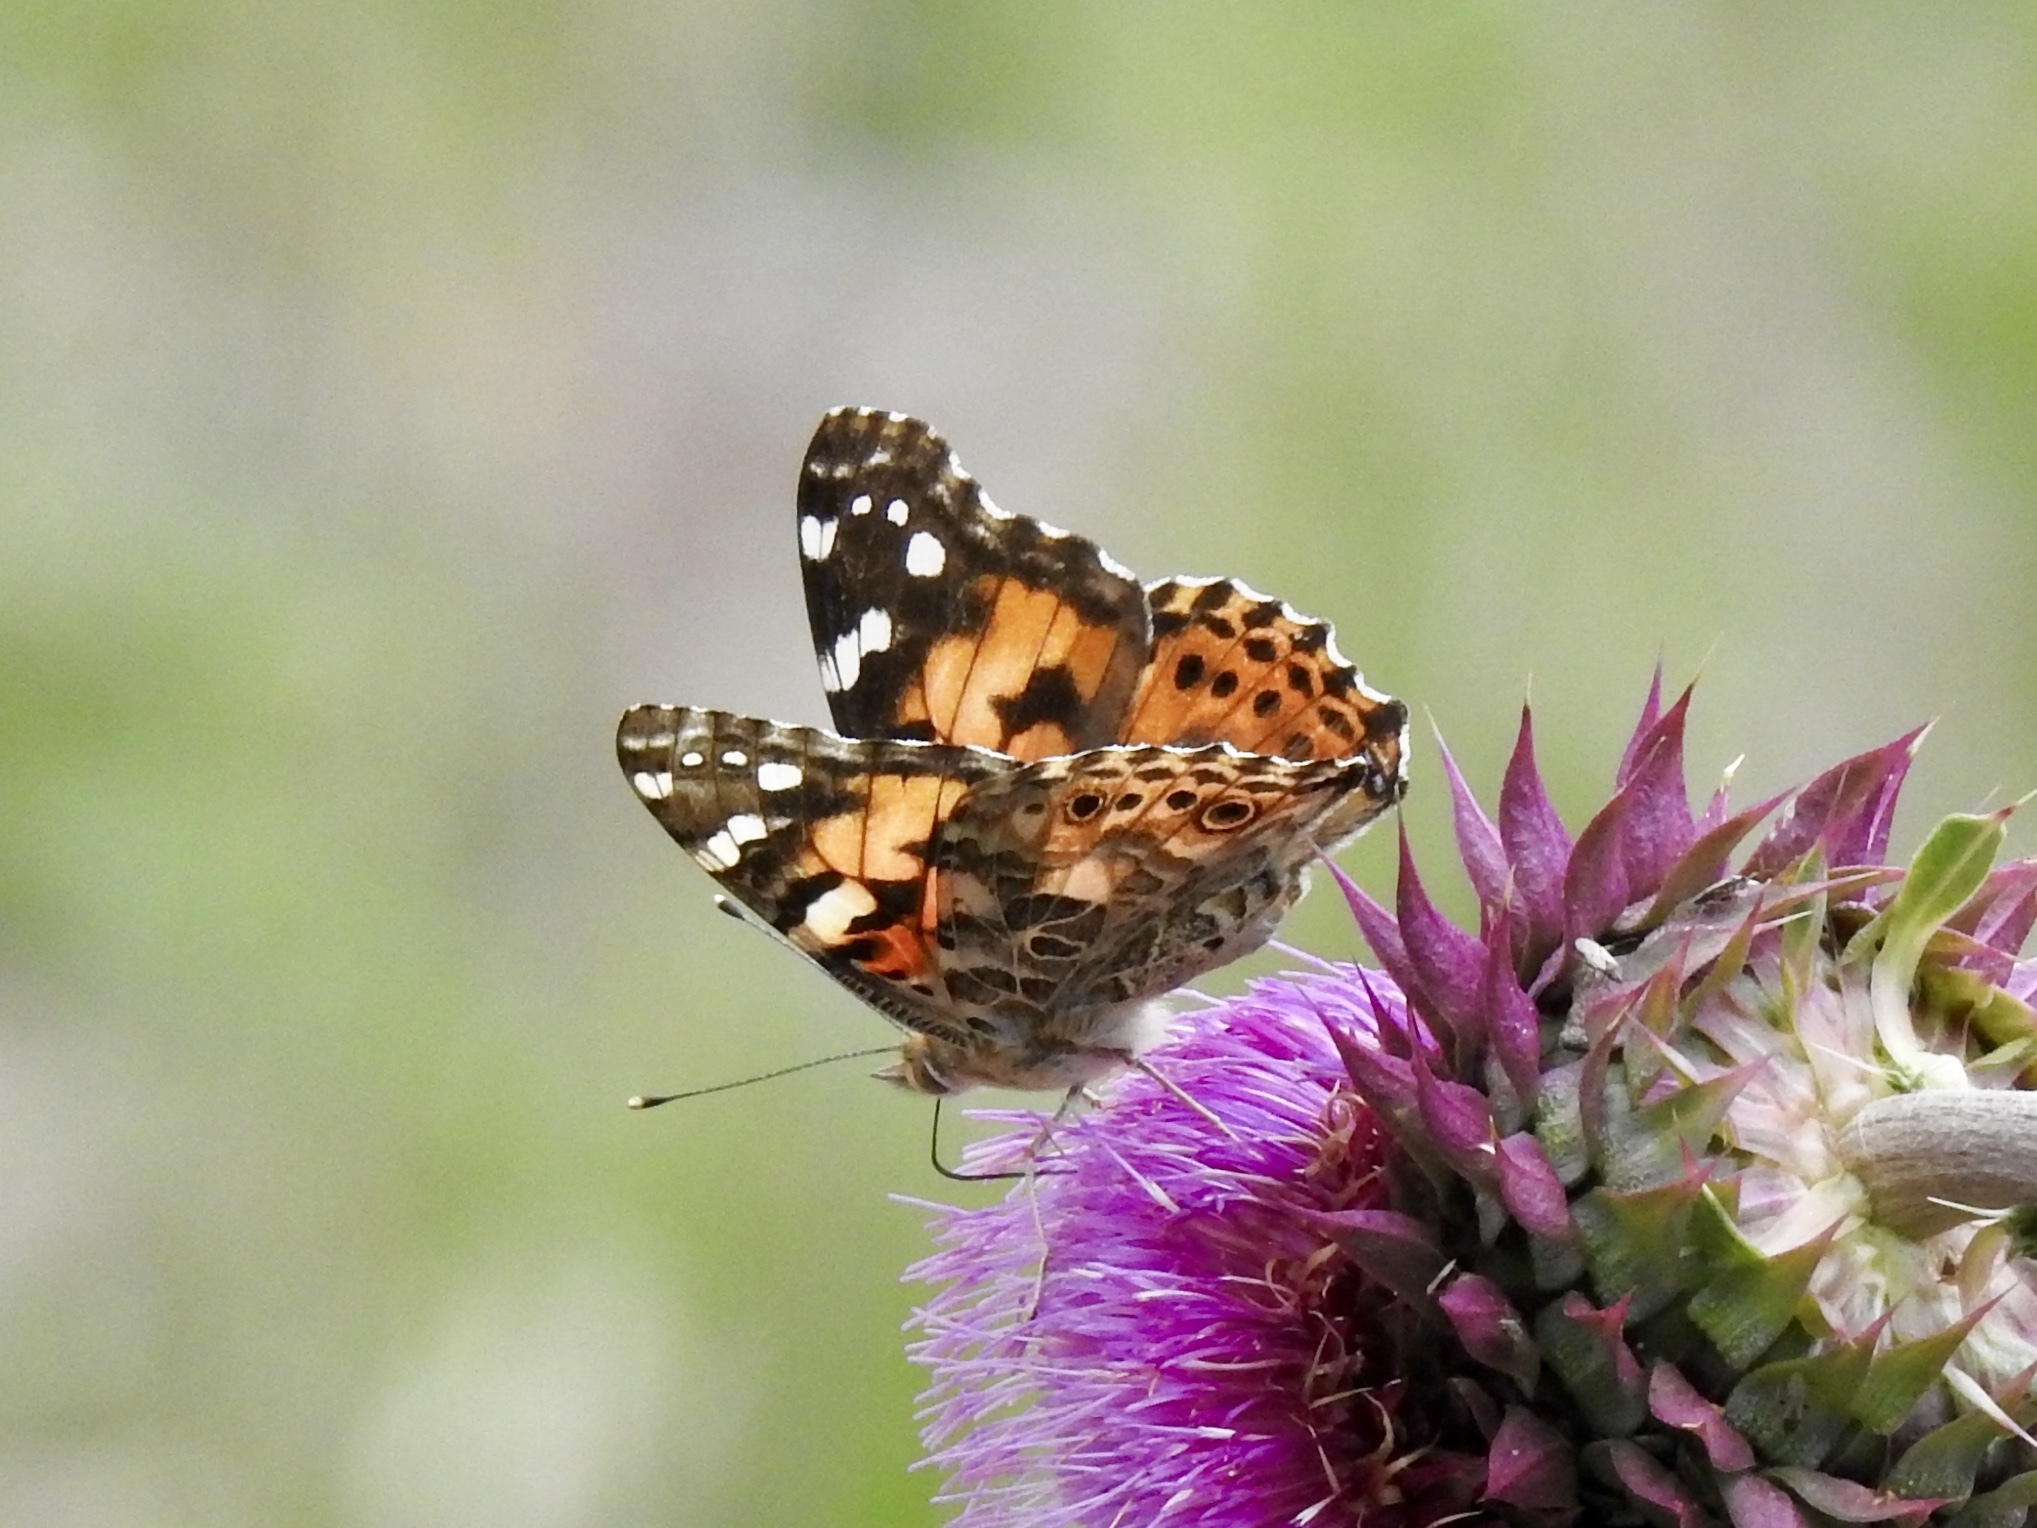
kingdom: Animalia
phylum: Arthropoda
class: Insecta
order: Lepidoptera
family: Nymphalidae
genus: Vanessa
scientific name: Vanessa cardui
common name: Painted lady
